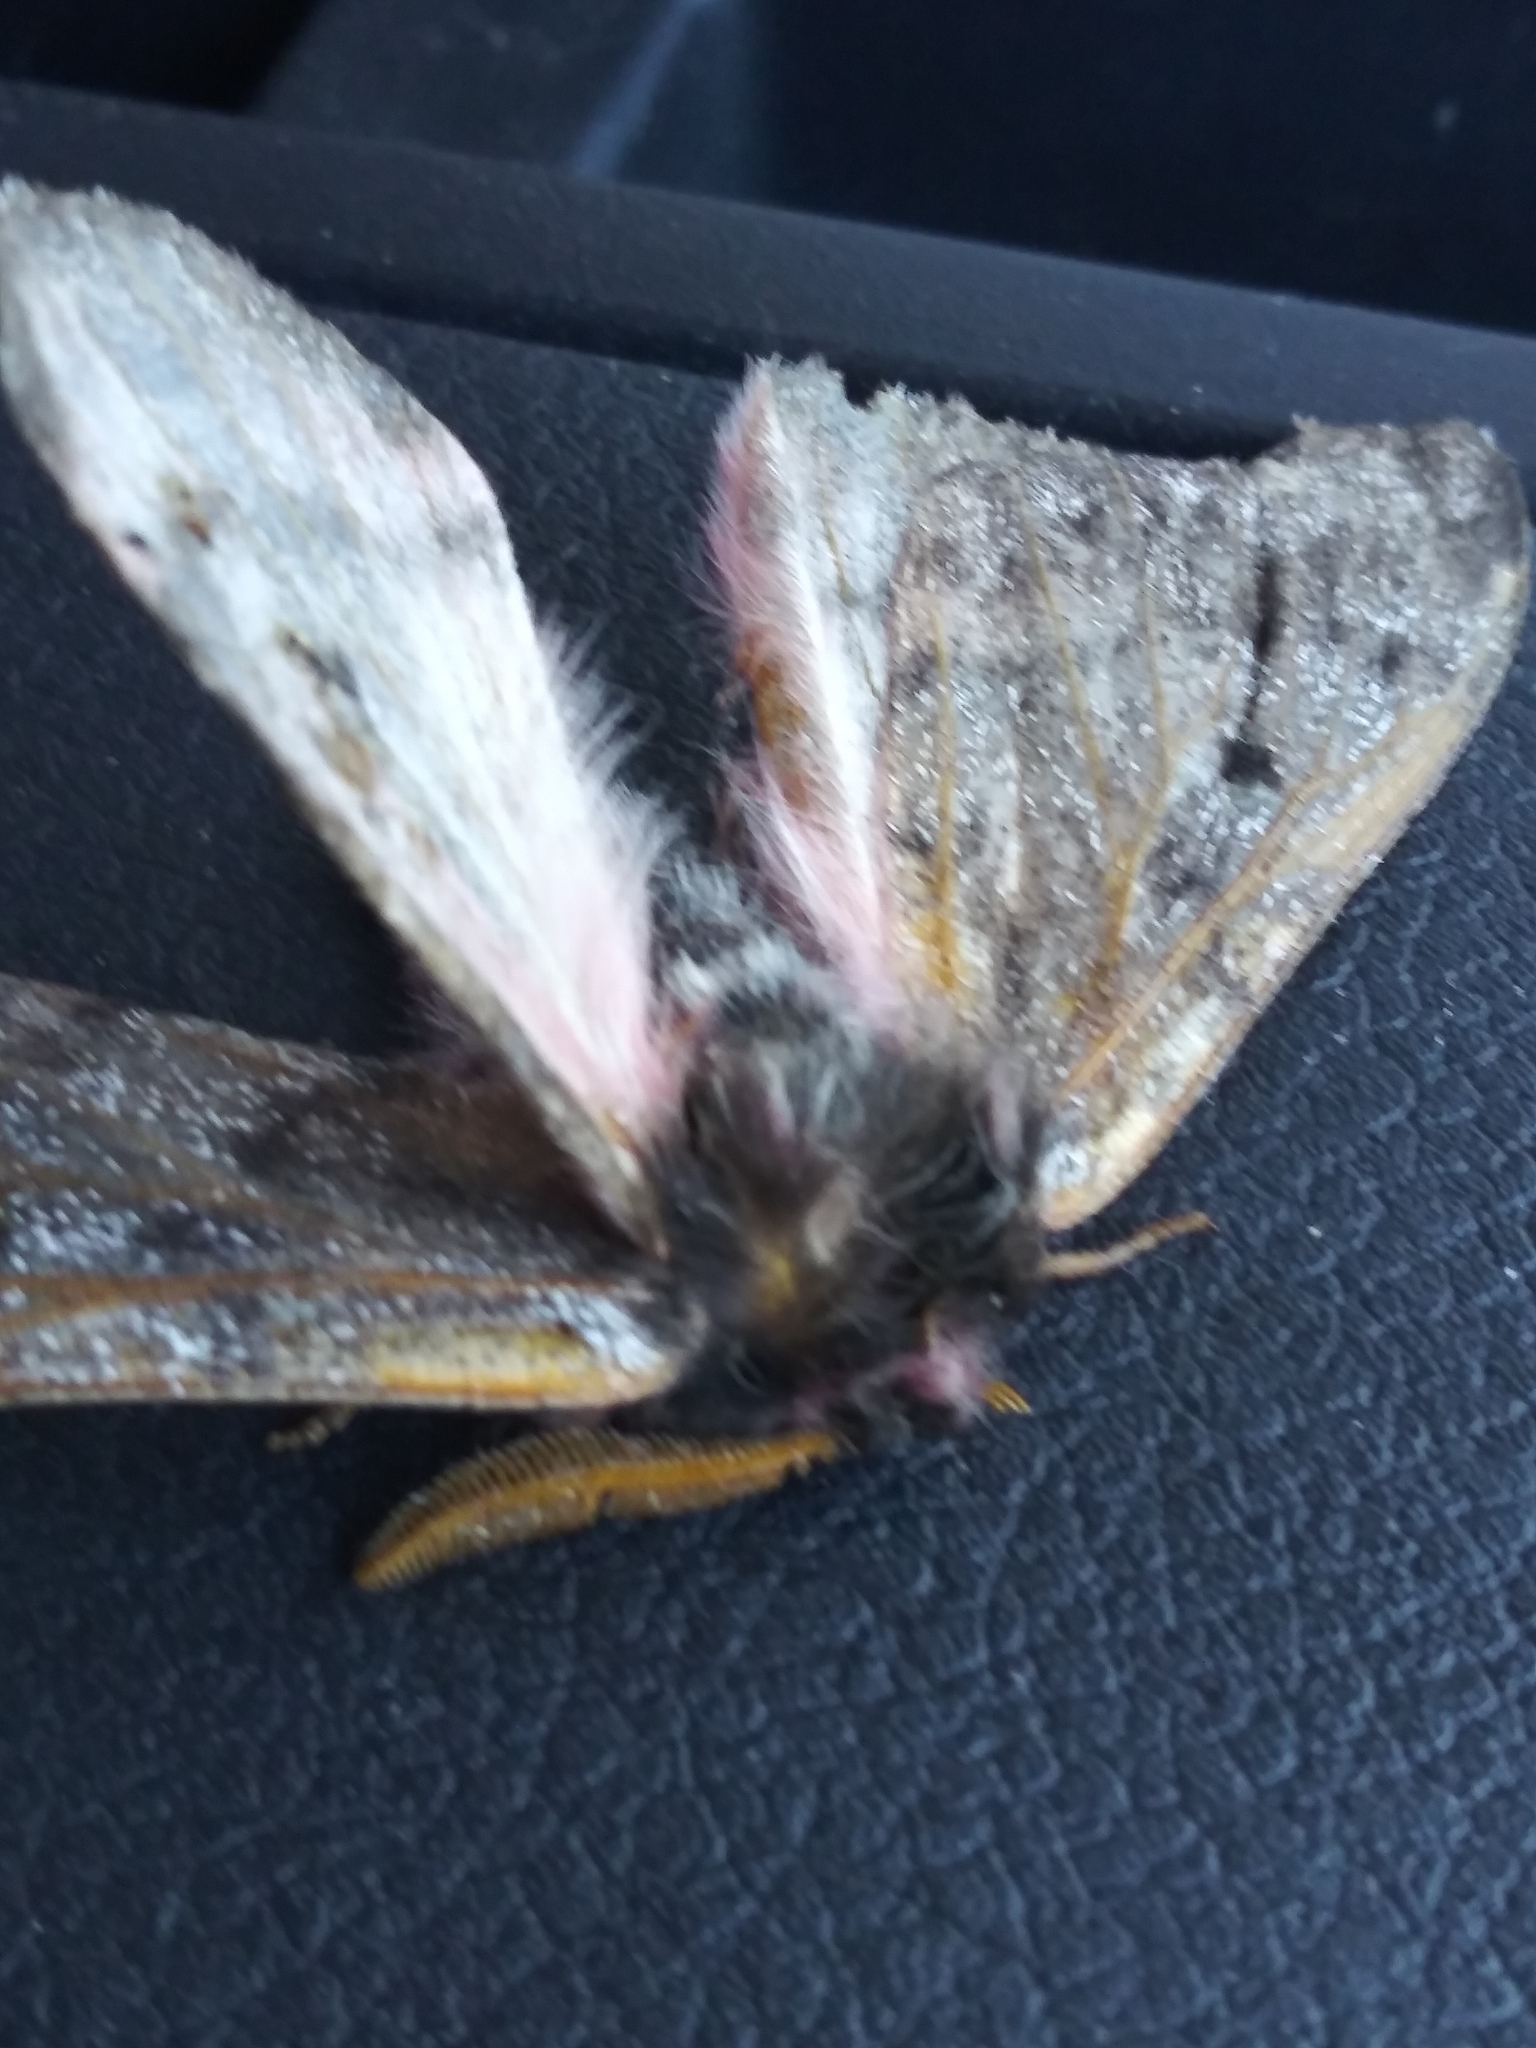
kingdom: Animalia
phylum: Arthropoda
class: Insecta
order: Lepidoptera
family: Saturniidae
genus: Coloradia
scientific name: Coloradia pandora
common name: Pandora pinemoth
